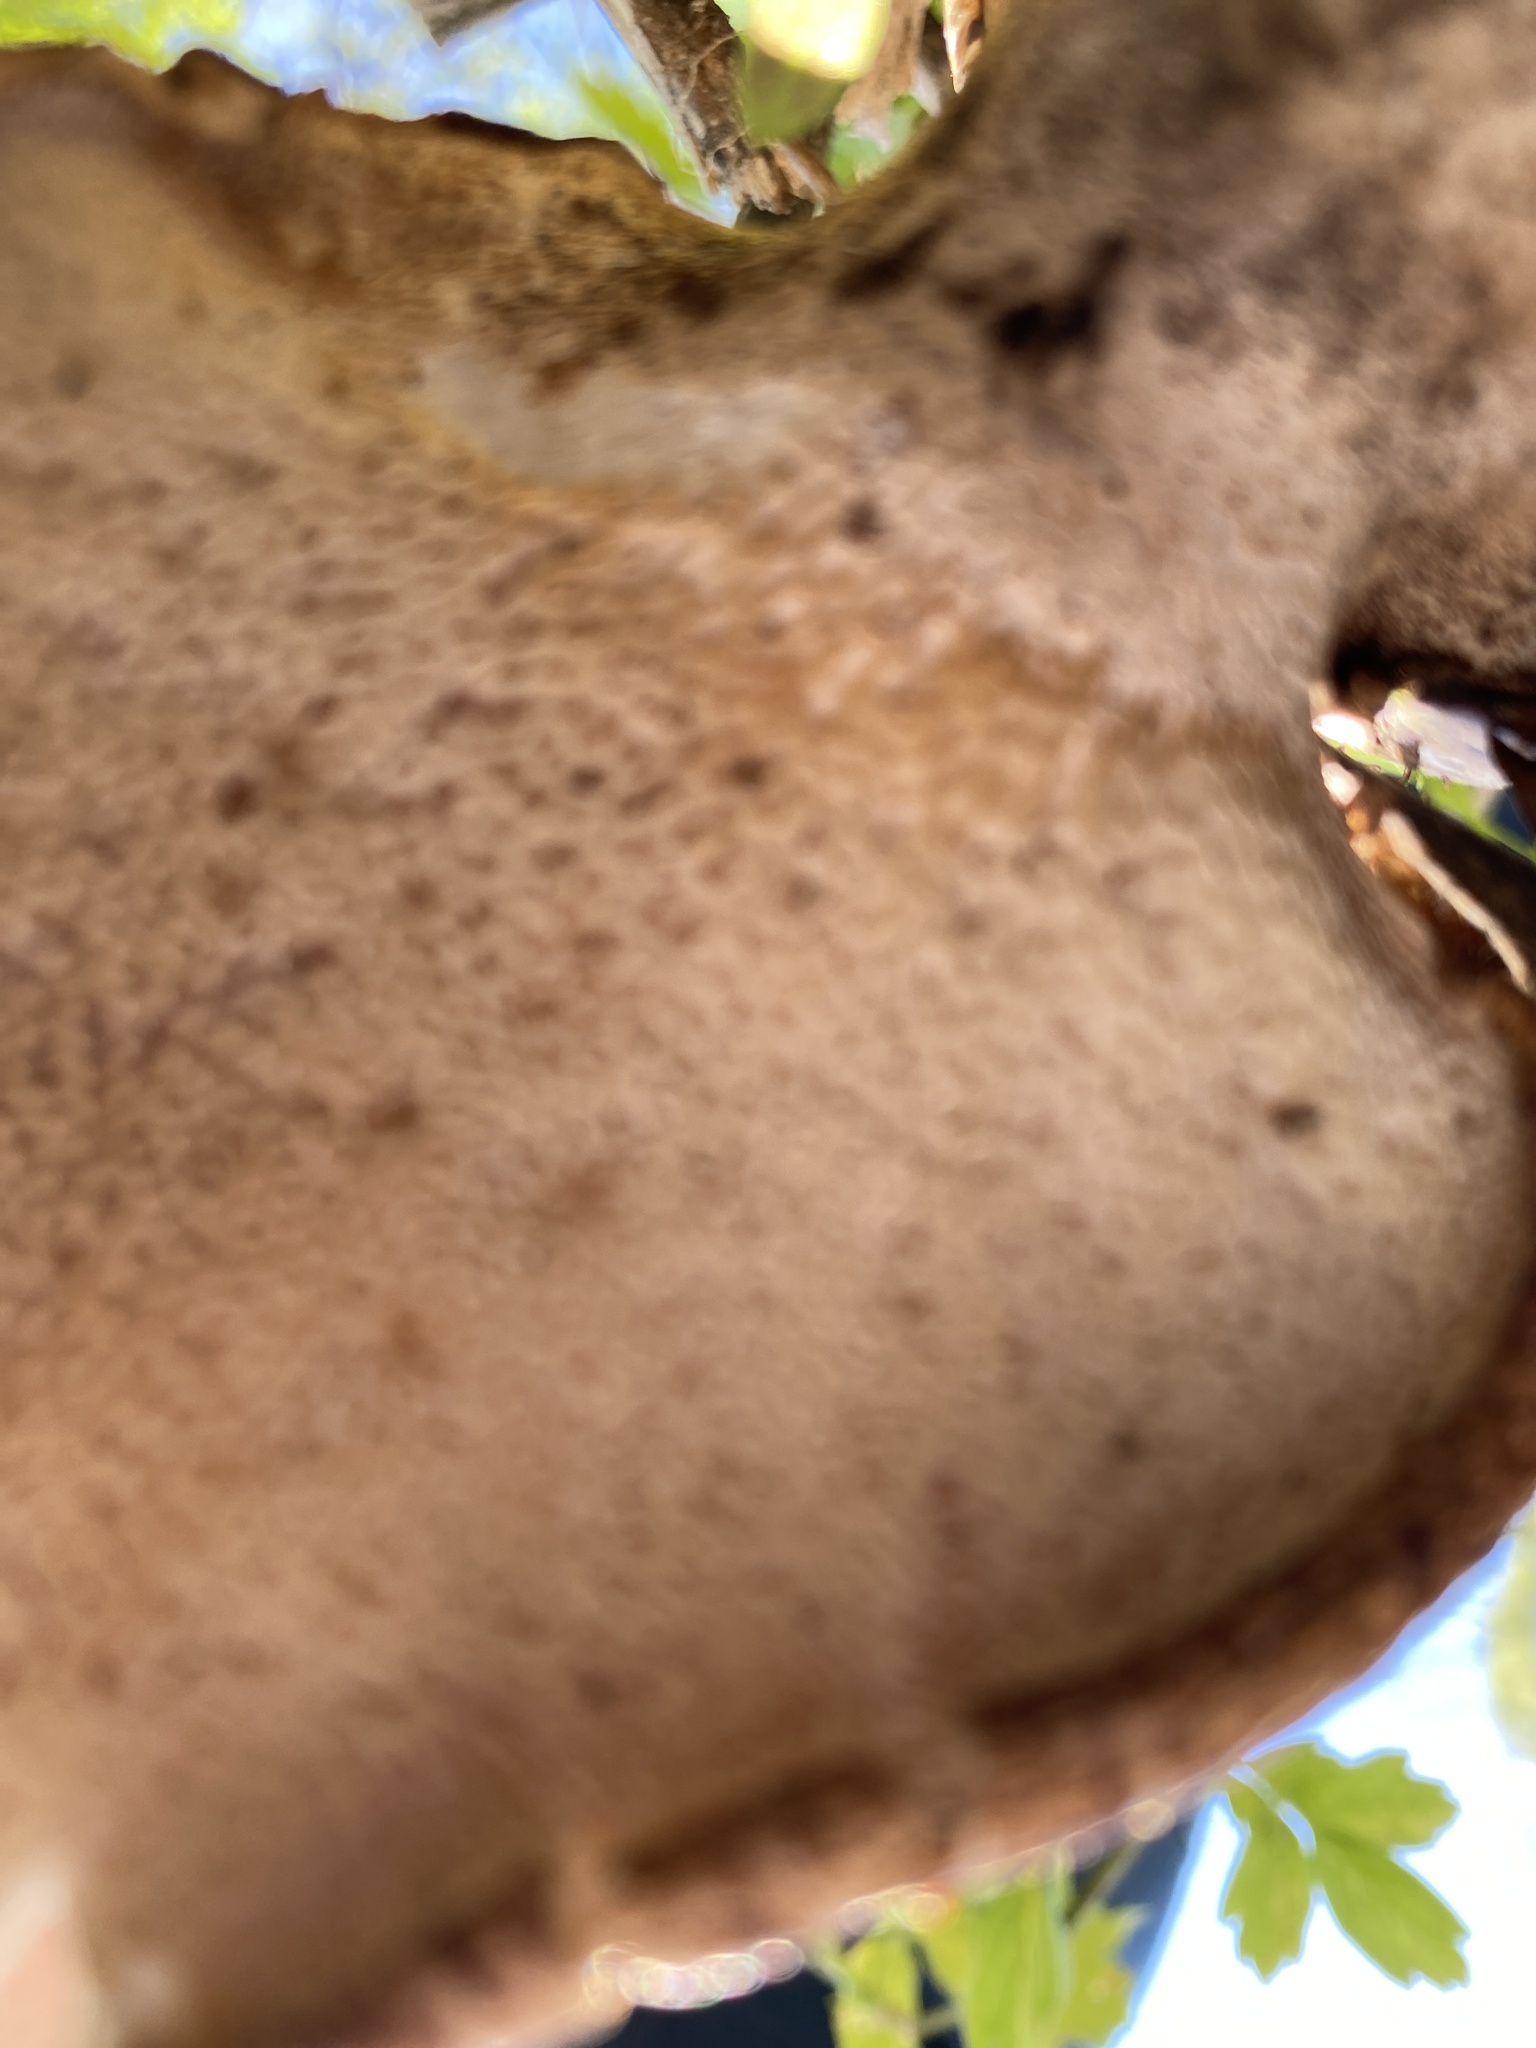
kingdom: Fungi
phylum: Basidiomycota
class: Agaricomycetes
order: Polyporales
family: Polyporaceae
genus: Cerioporus
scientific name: Cerioporus squamosus
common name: Dryad's saddle
